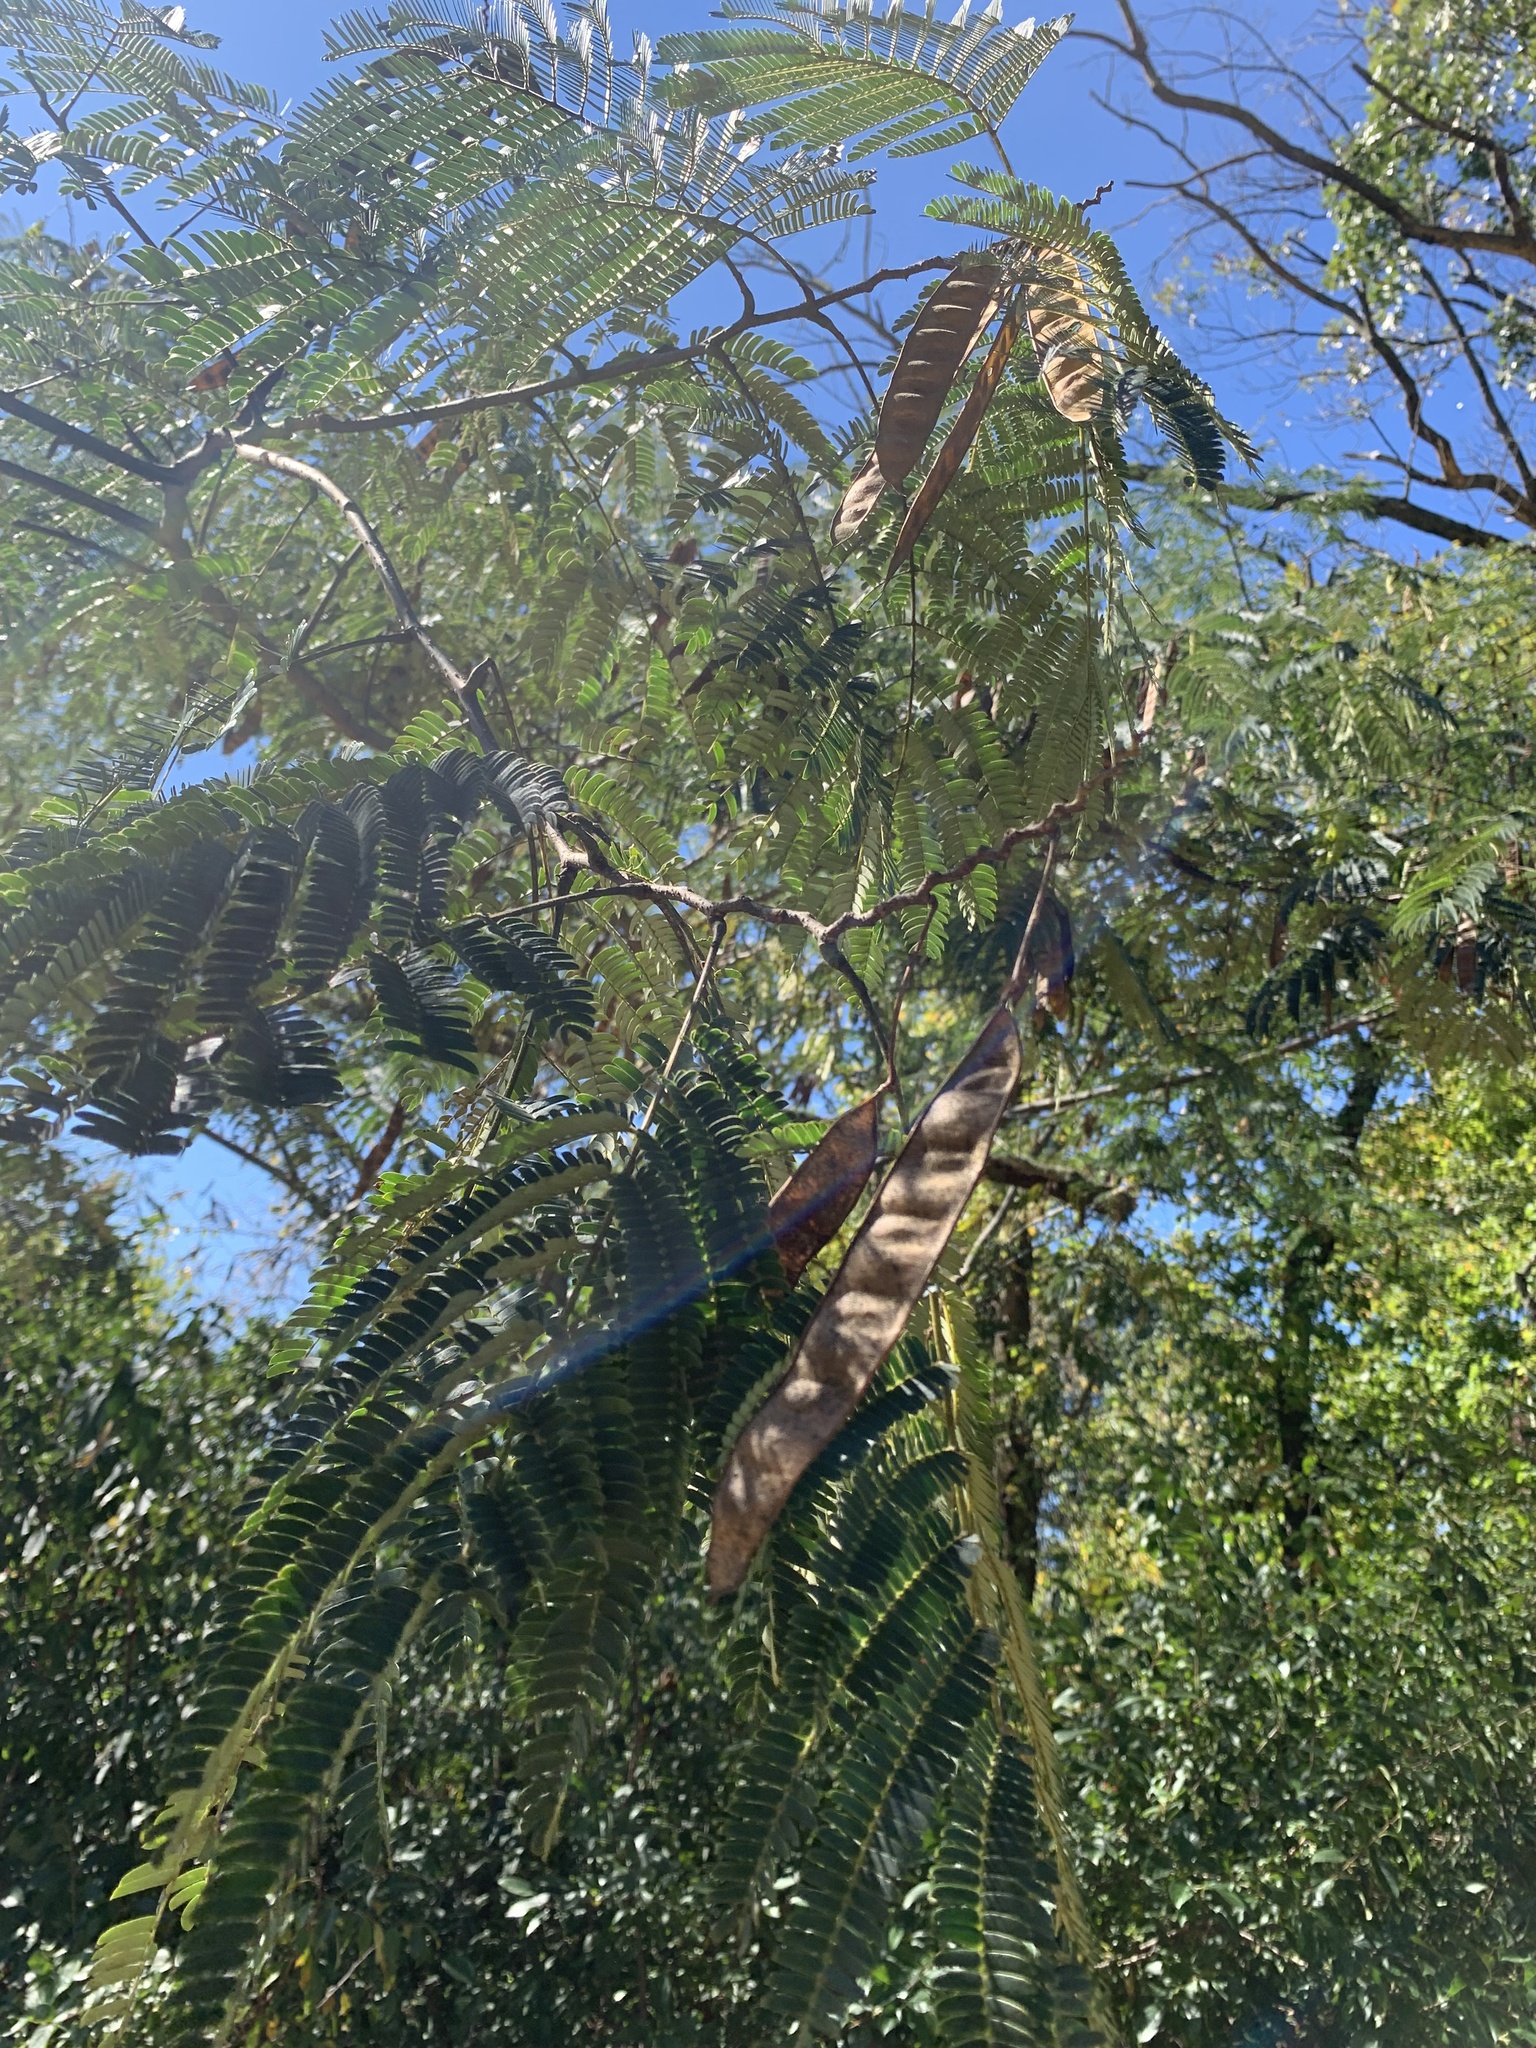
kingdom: Plantae
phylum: Tracheophyta
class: Magnoliopsida
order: Fabales
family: Fabaceae
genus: Albizia
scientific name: Albizia julibrissin
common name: Silktree
